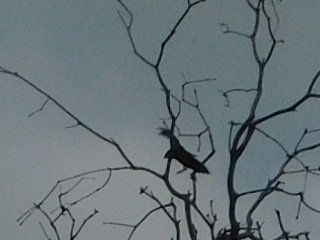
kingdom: Animalia
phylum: Chordata
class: Aves
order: Apodiformes
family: Apodidae
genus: Chaetura
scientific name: Chaetura pelagica
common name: Chimney swift
